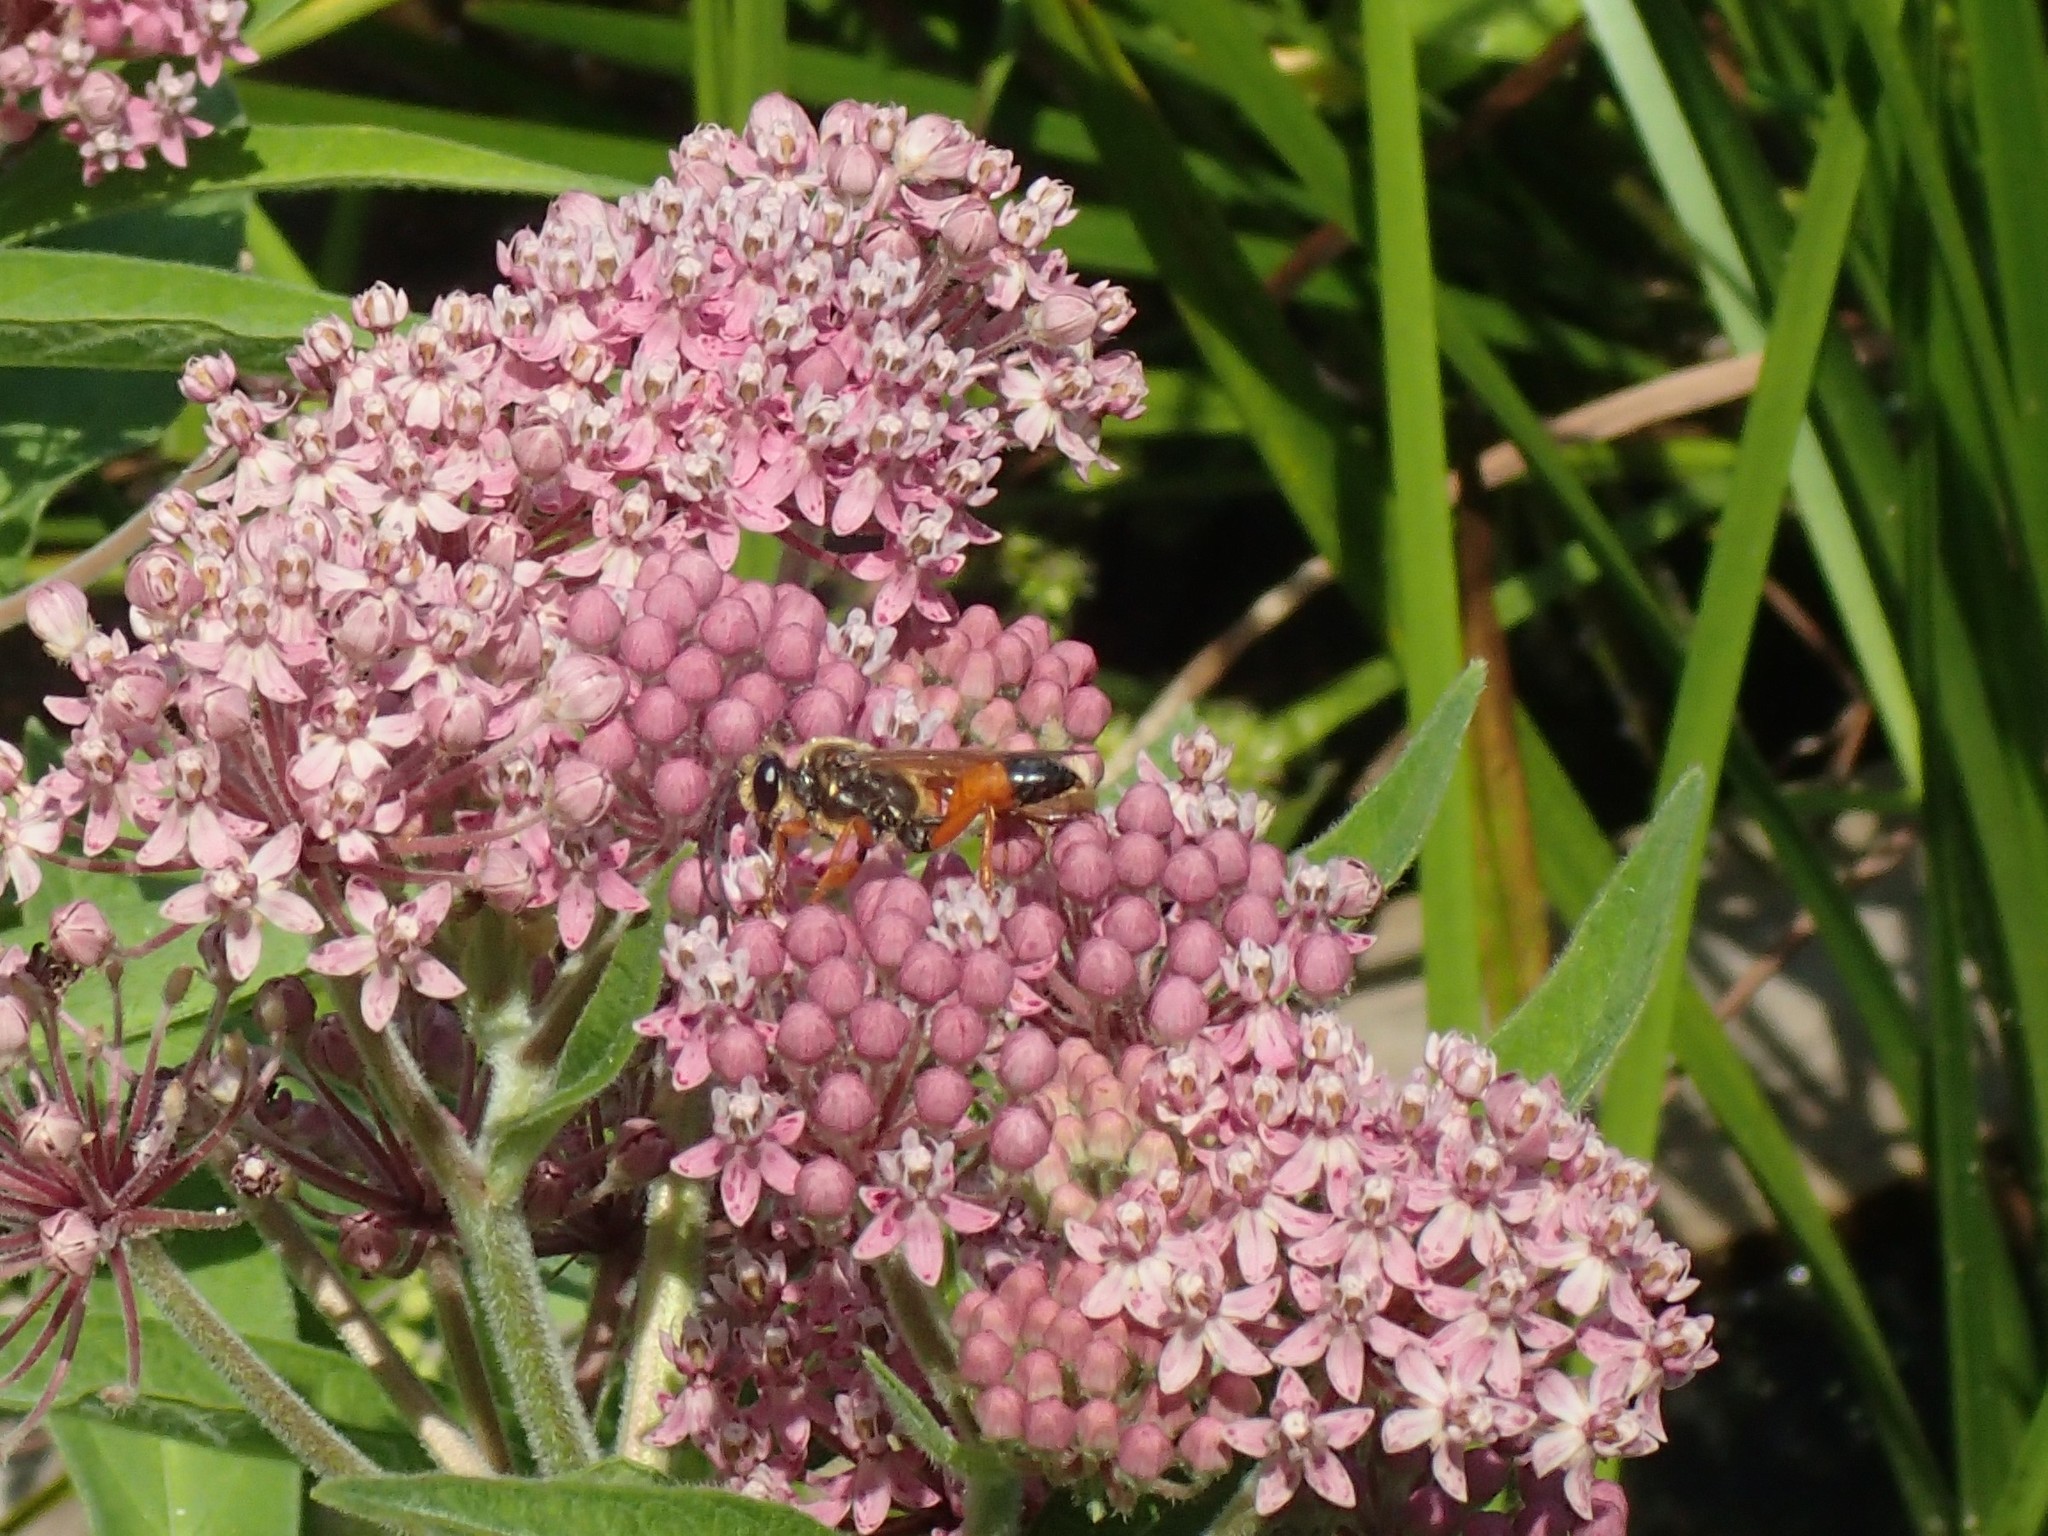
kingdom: Animalia
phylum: Arthropoda
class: Insecta
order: Hymenoptera
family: Sphecidae
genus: Sphex
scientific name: Sphex ichneumoneus
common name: Great golden digger wasp
